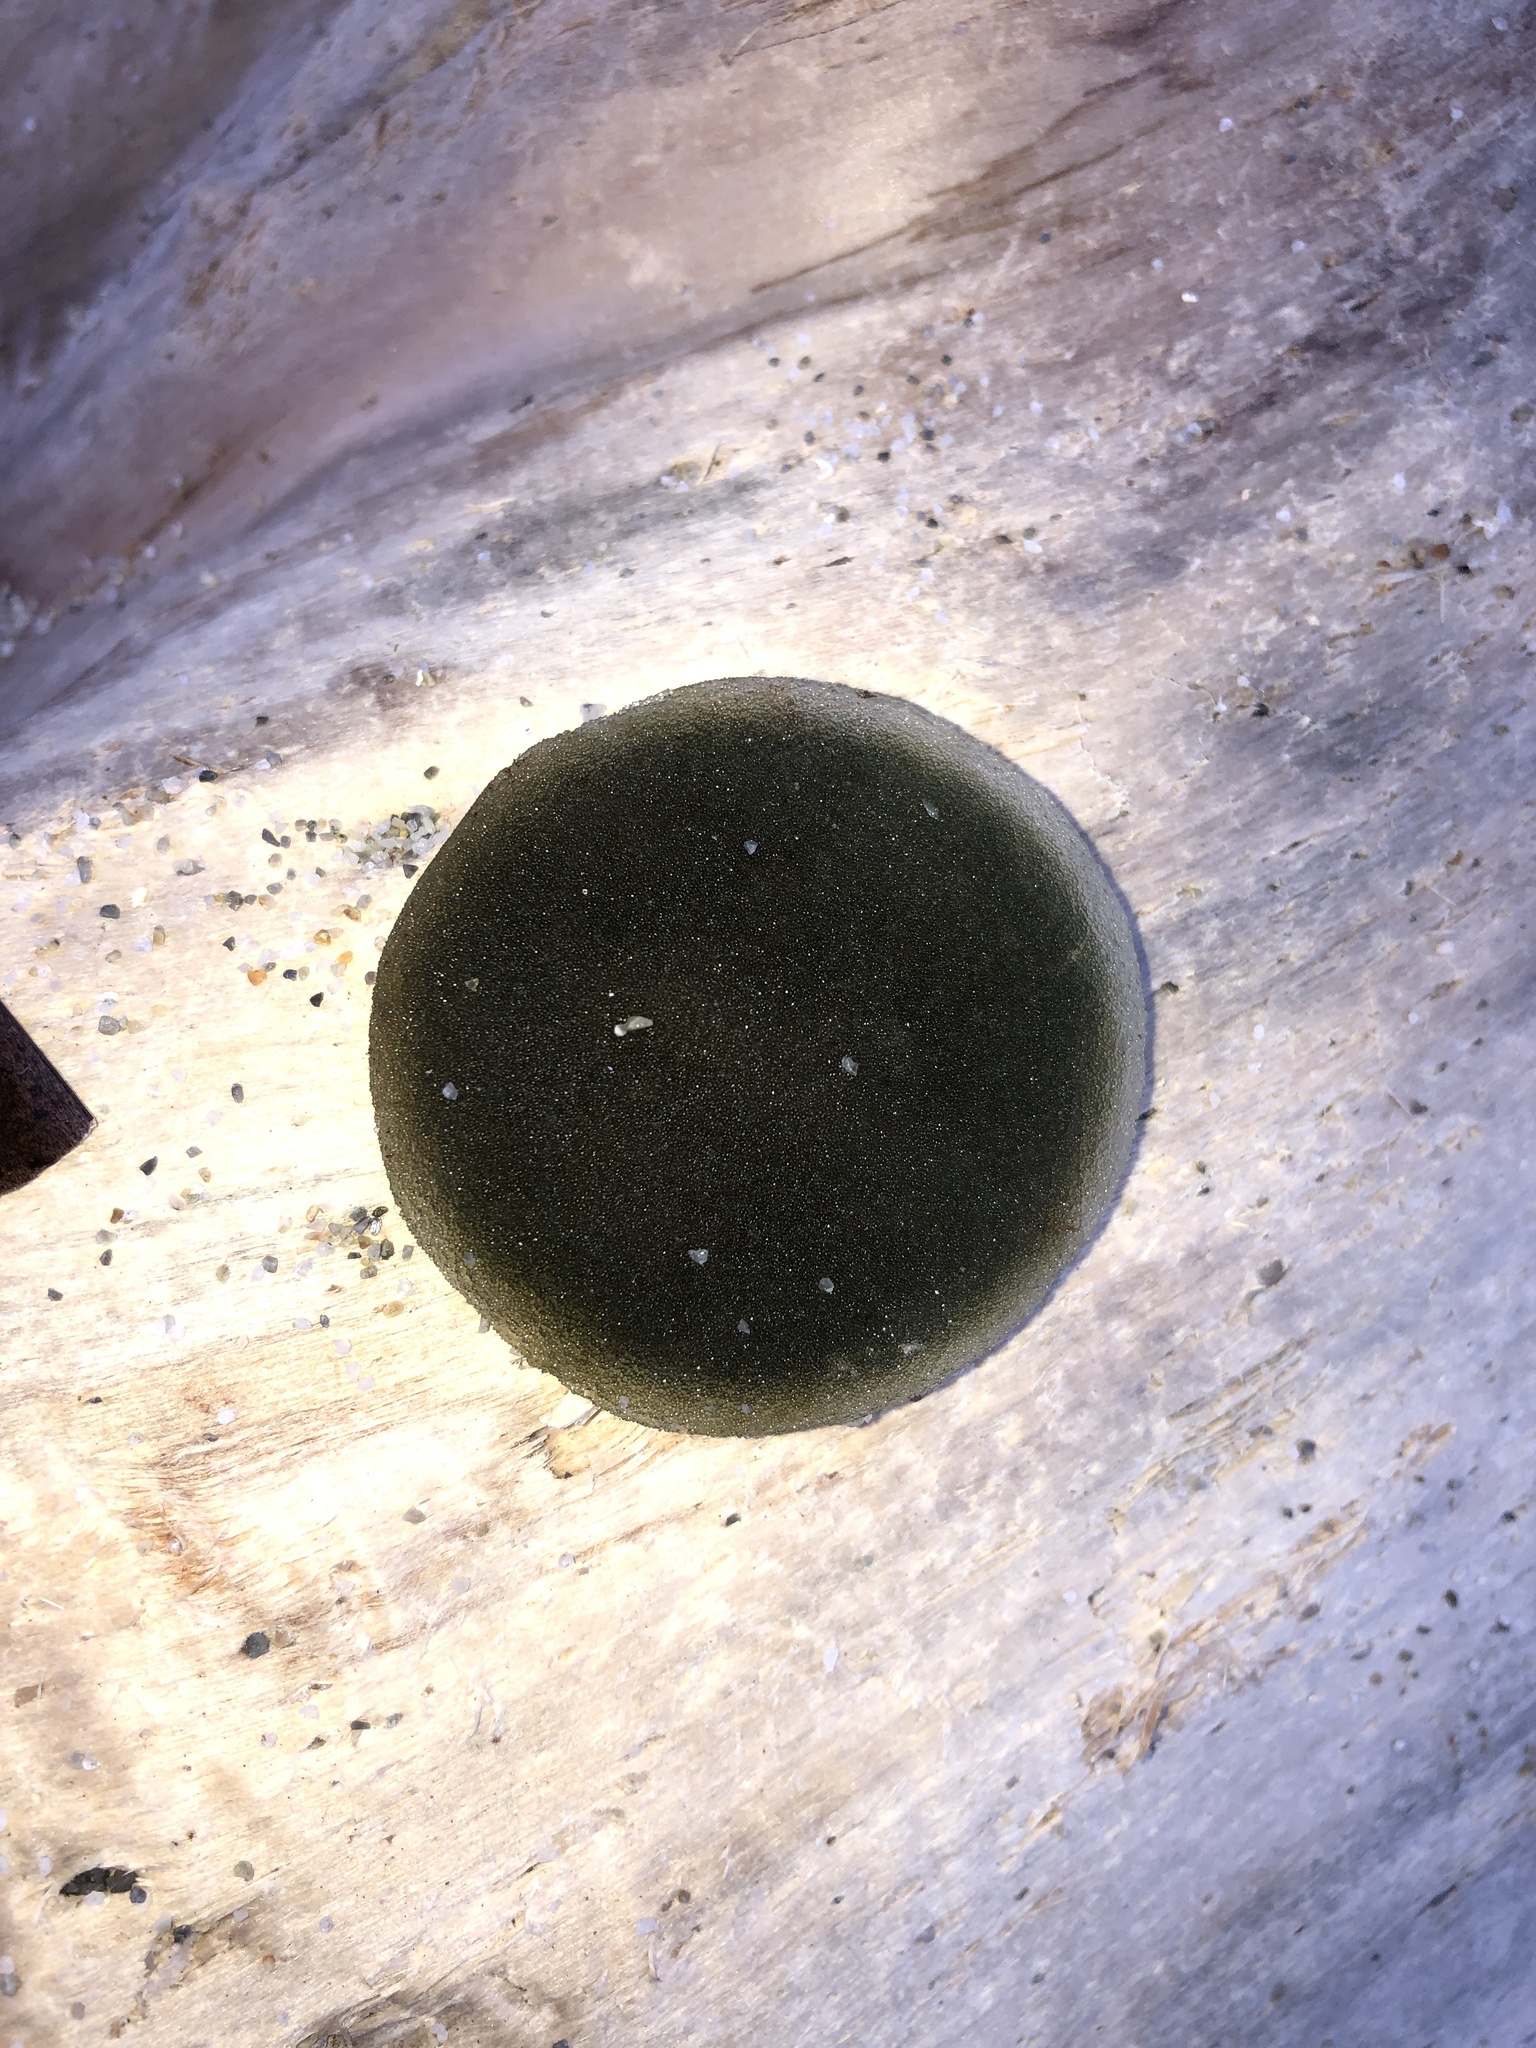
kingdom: Plantae
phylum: Chlorophyta
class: Ulvophyceae
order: Bryopsidales
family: Codiaceae
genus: Codium
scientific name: Codium bursa
